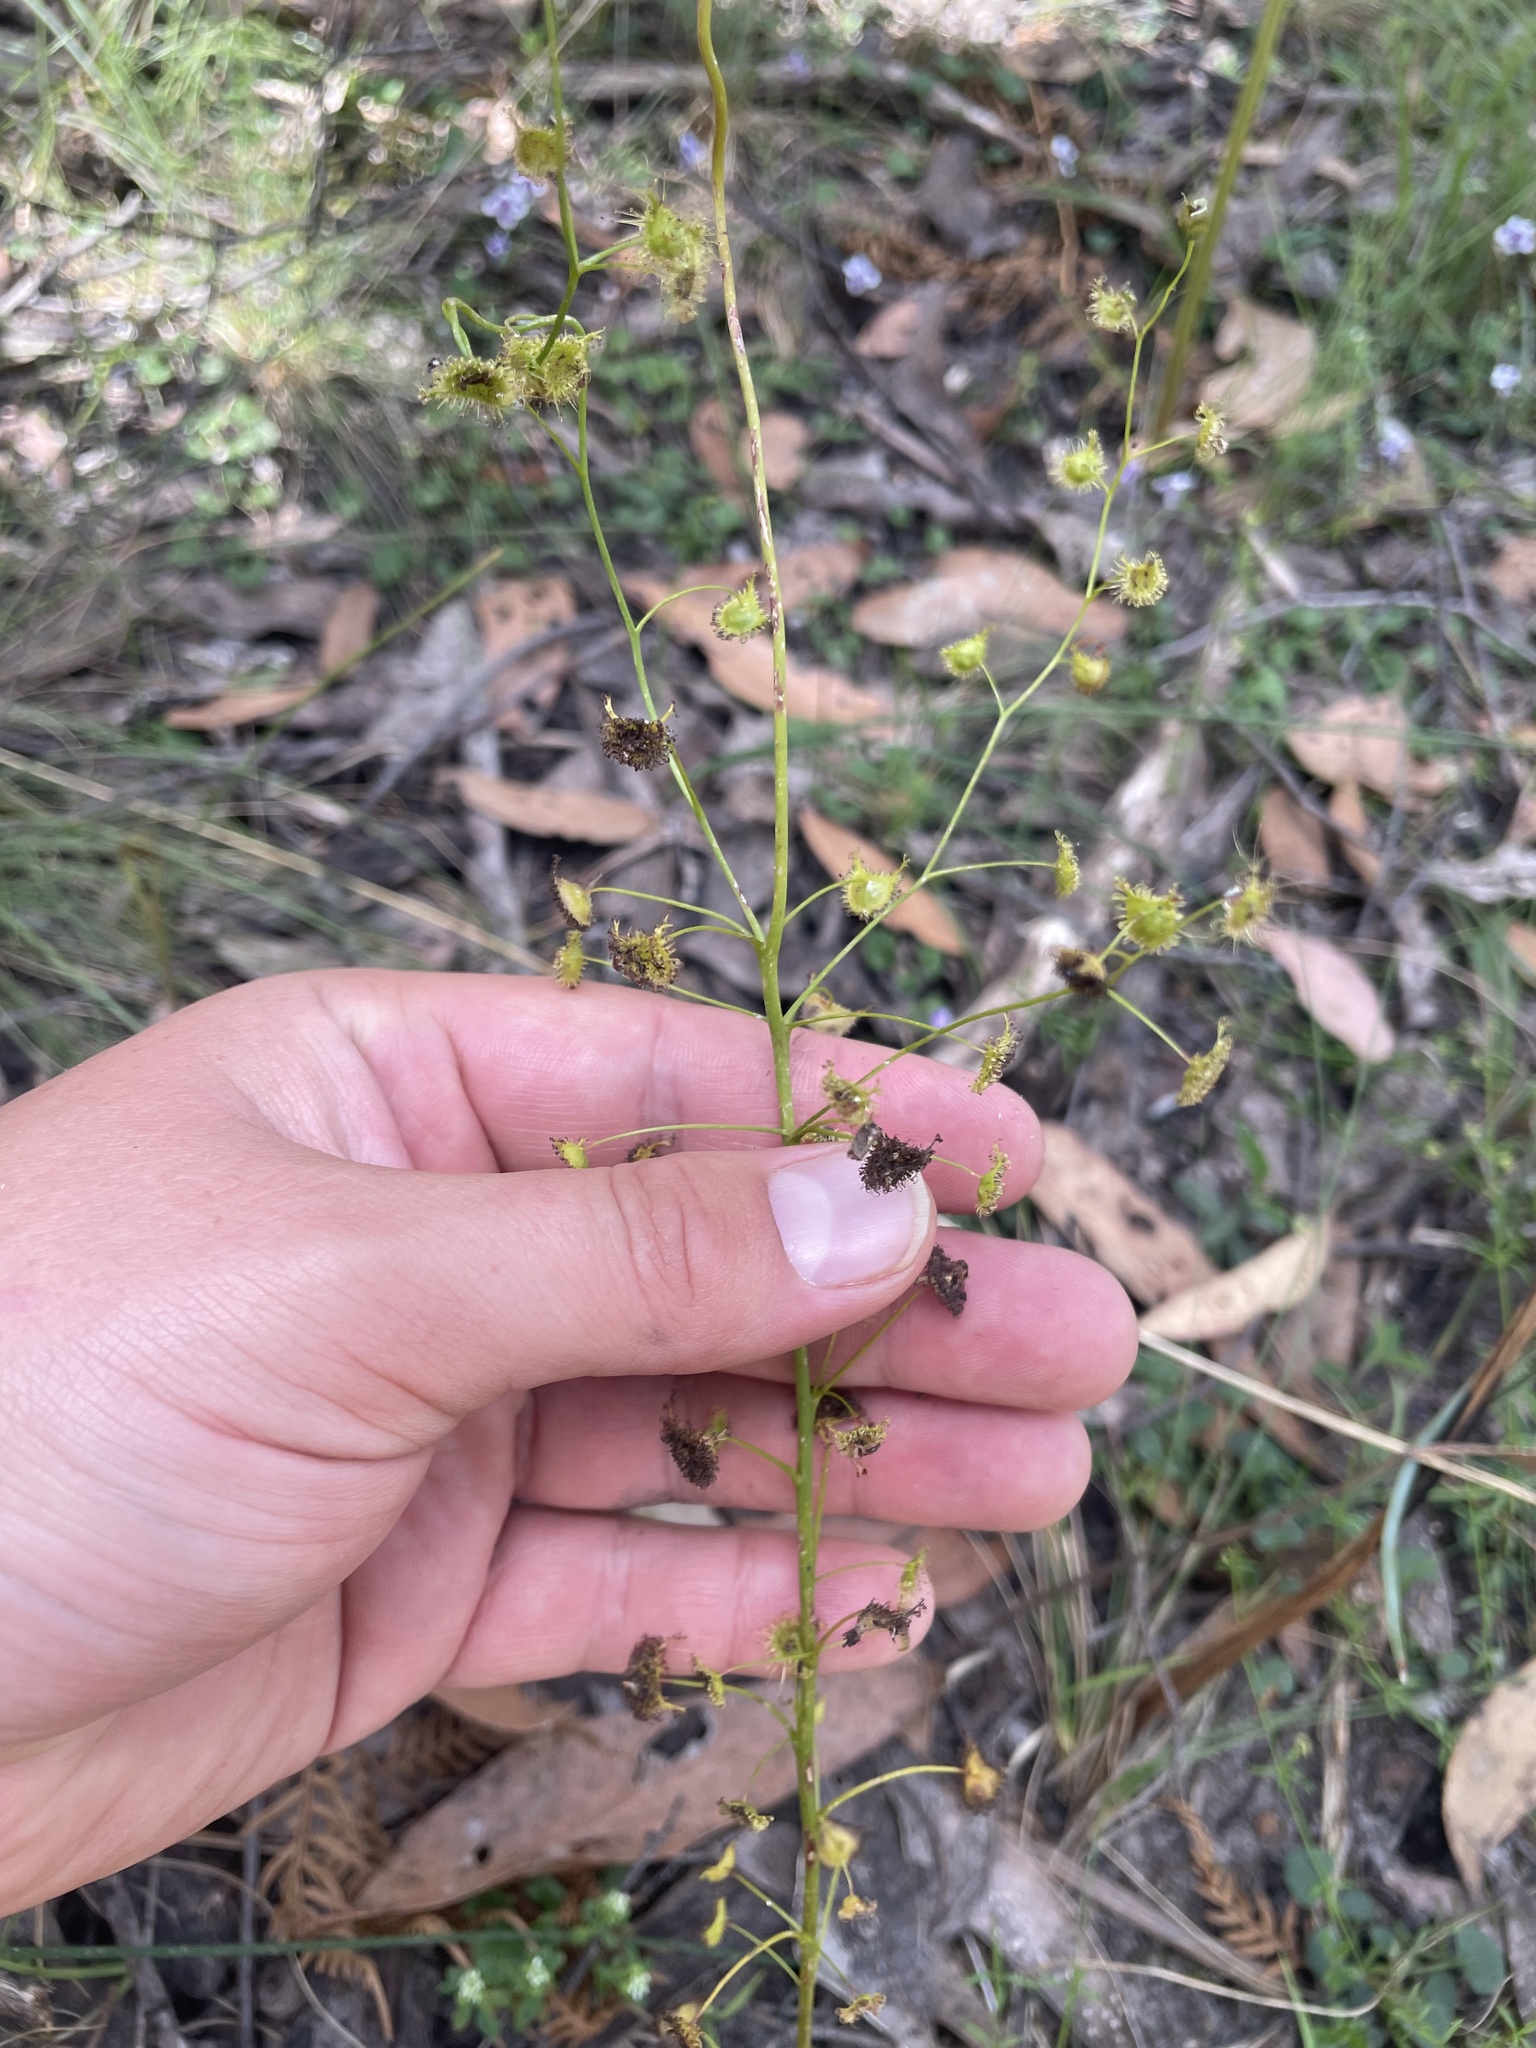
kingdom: Plantae
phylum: Tracheophyta
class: Magnoliopsida
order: Caryophyllales
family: Droseraceae
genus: Drosera
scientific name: Drosera peltata
